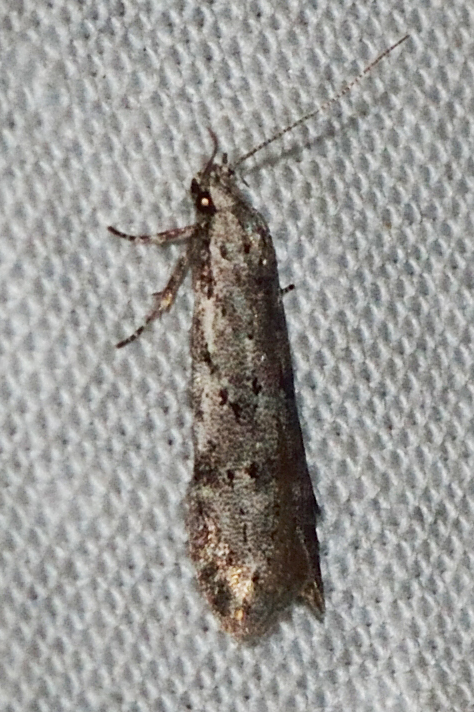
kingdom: Animalia
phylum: Arthropoda
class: Insecta
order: Lepidoptera
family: Gelechiidae
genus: Carpatolechia
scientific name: Carpatolechia proximella
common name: Black-speckled groundling
